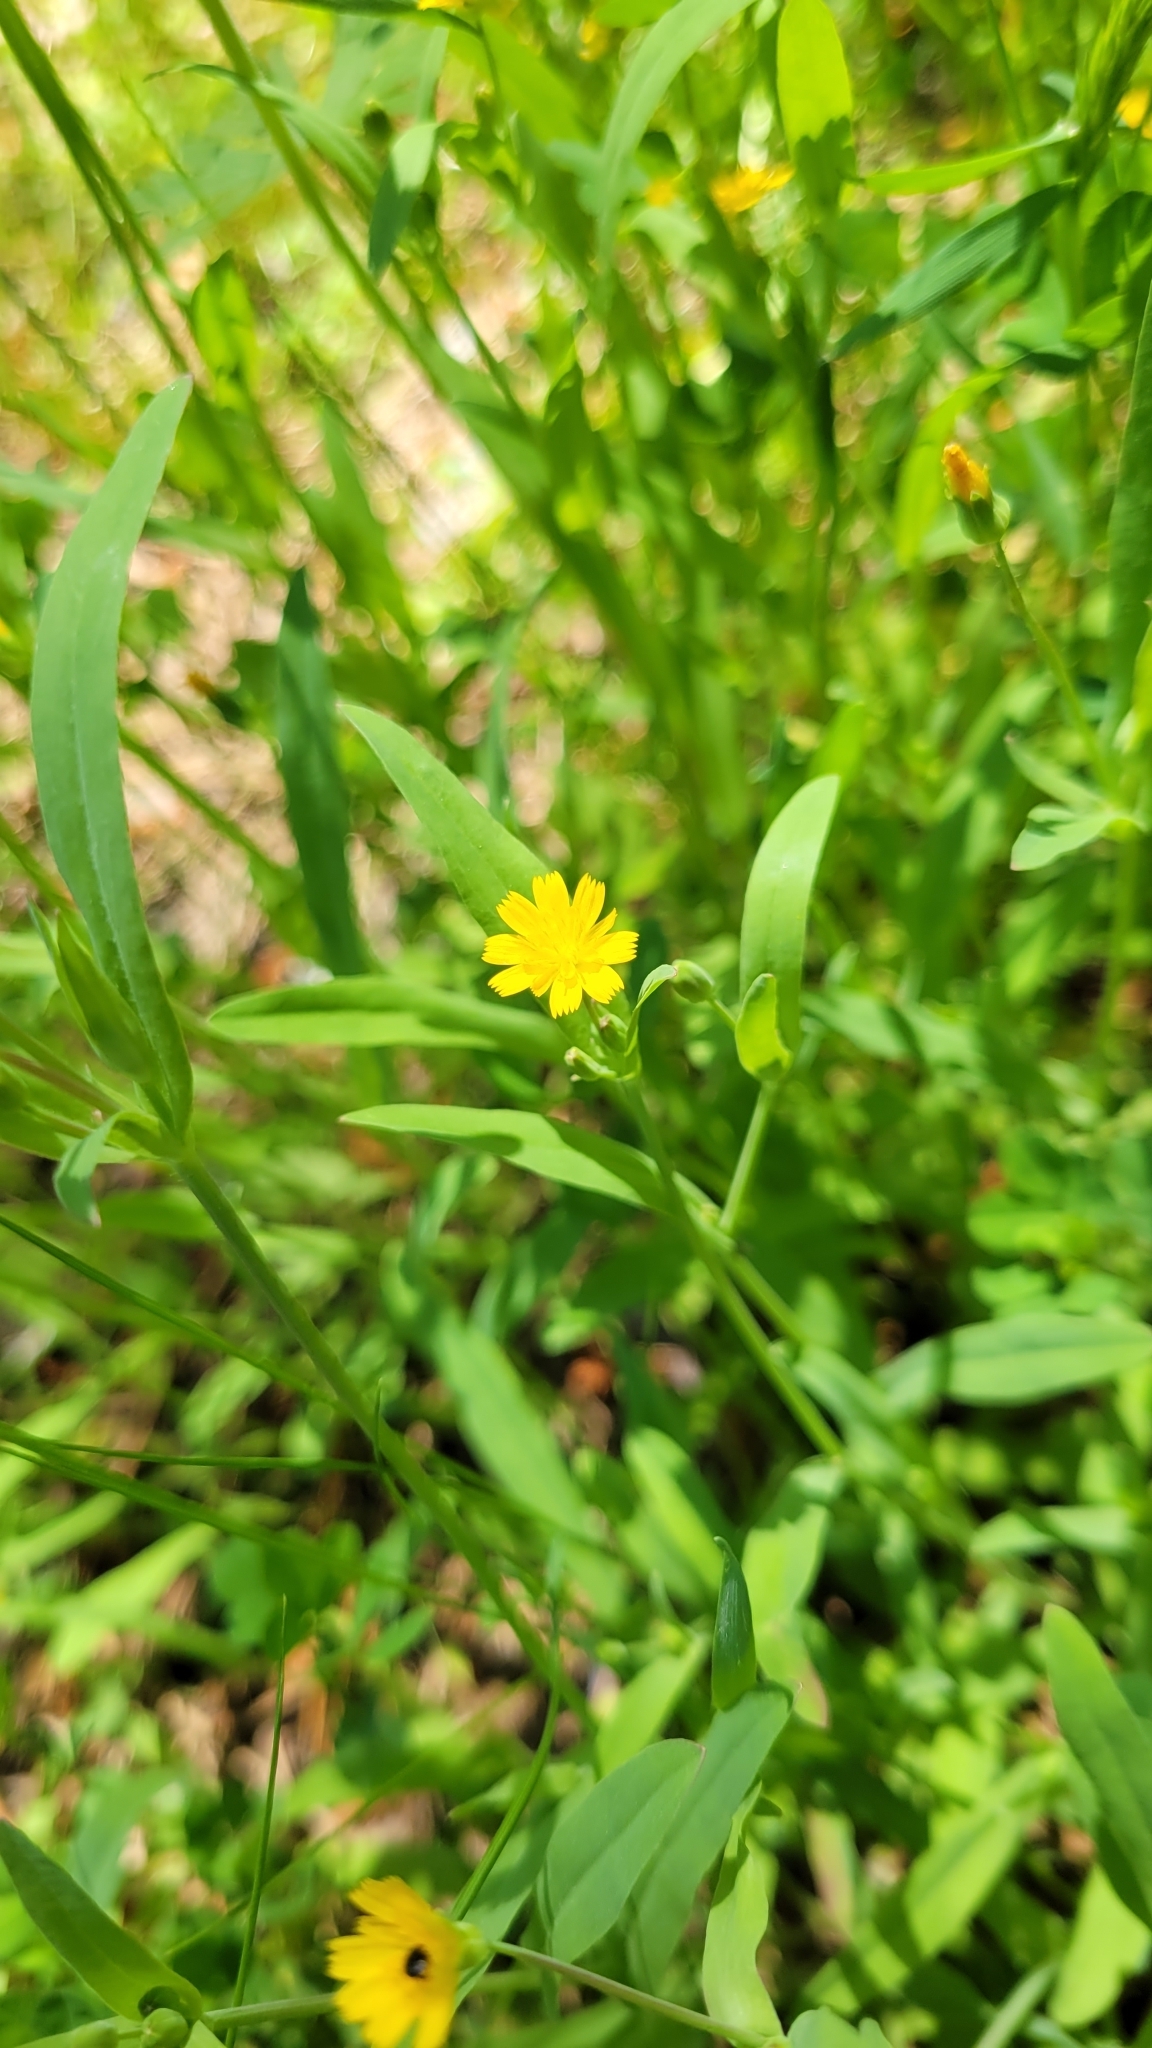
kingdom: Plantae
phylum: Tracheophyta
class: Magnoliopsida
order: Asterales
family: Asteraceae
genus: Krigia
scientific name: Krigia cespitosa
